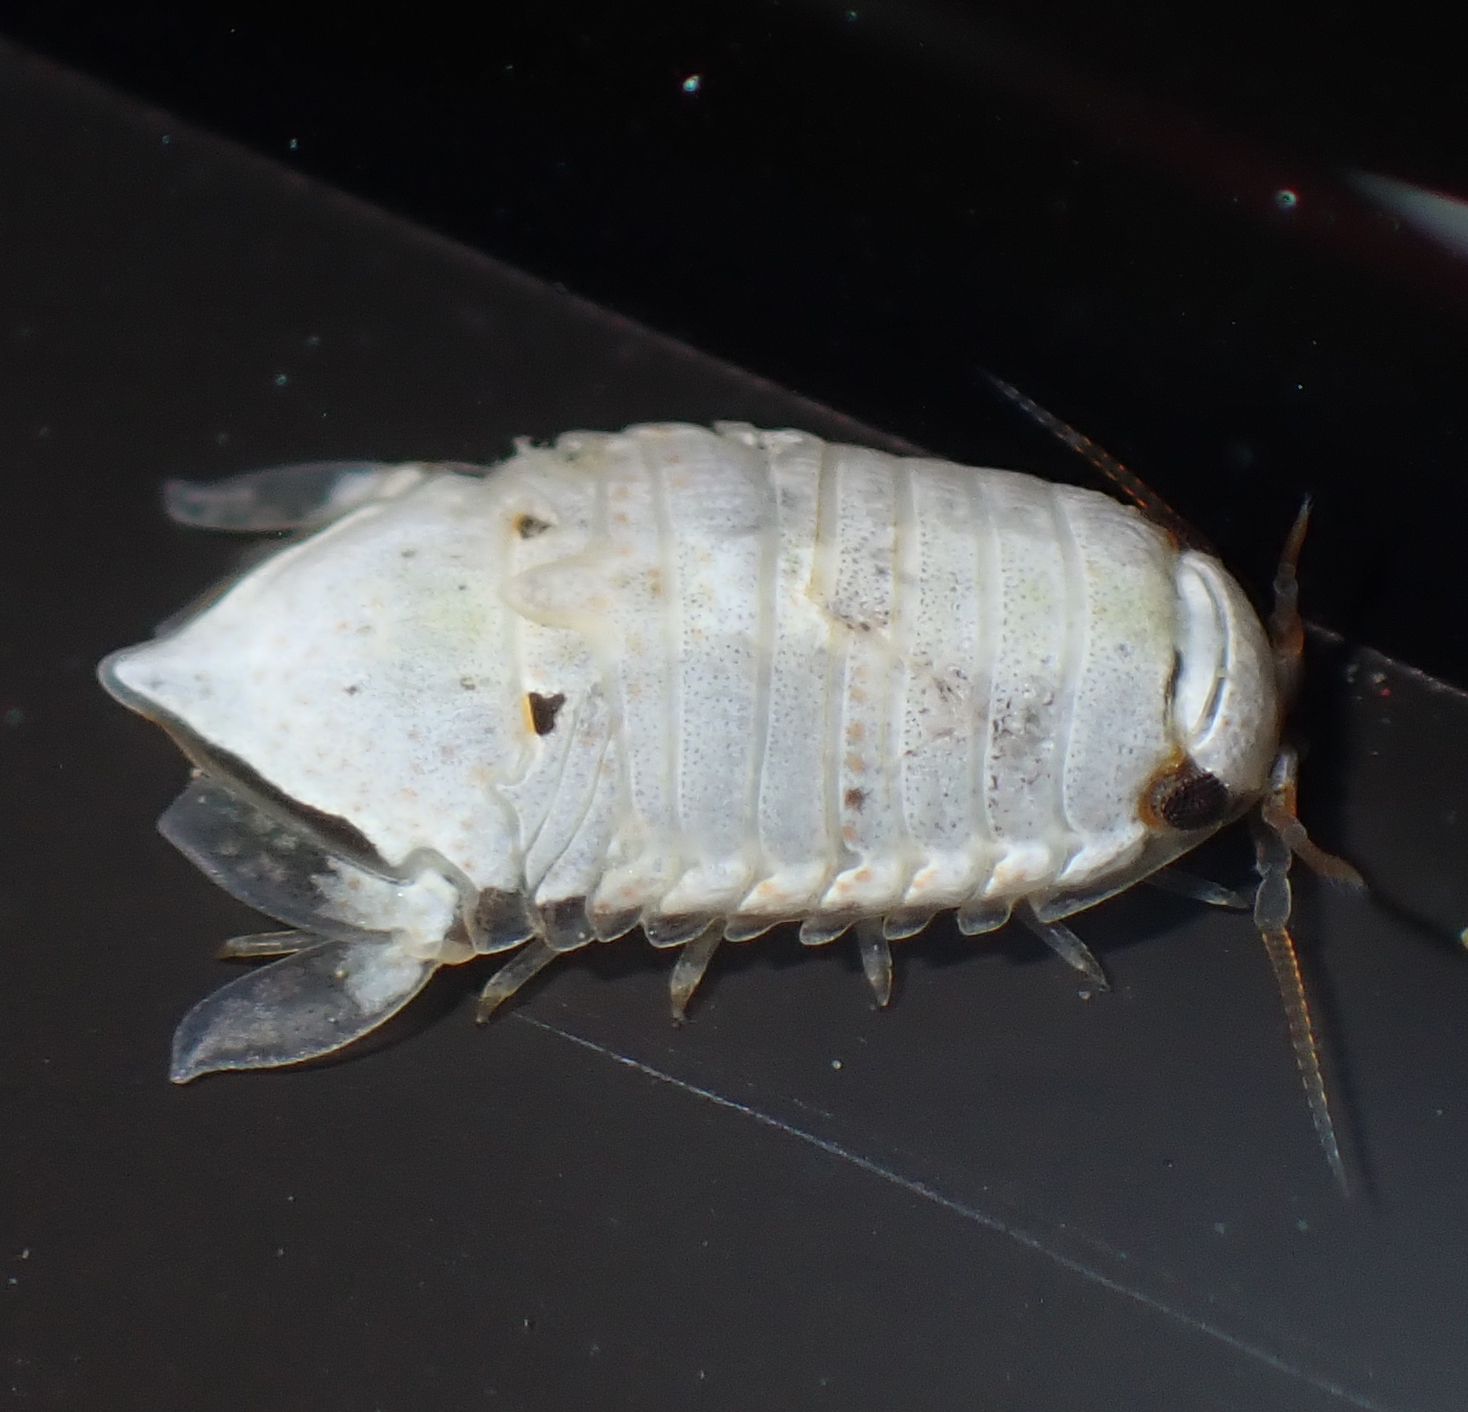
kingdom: Animalia
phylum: Arthropoda
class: Malacostraca
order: Isopoda
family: Sphaeromatidae
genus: Isocladus
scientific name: Isocladus armatus
